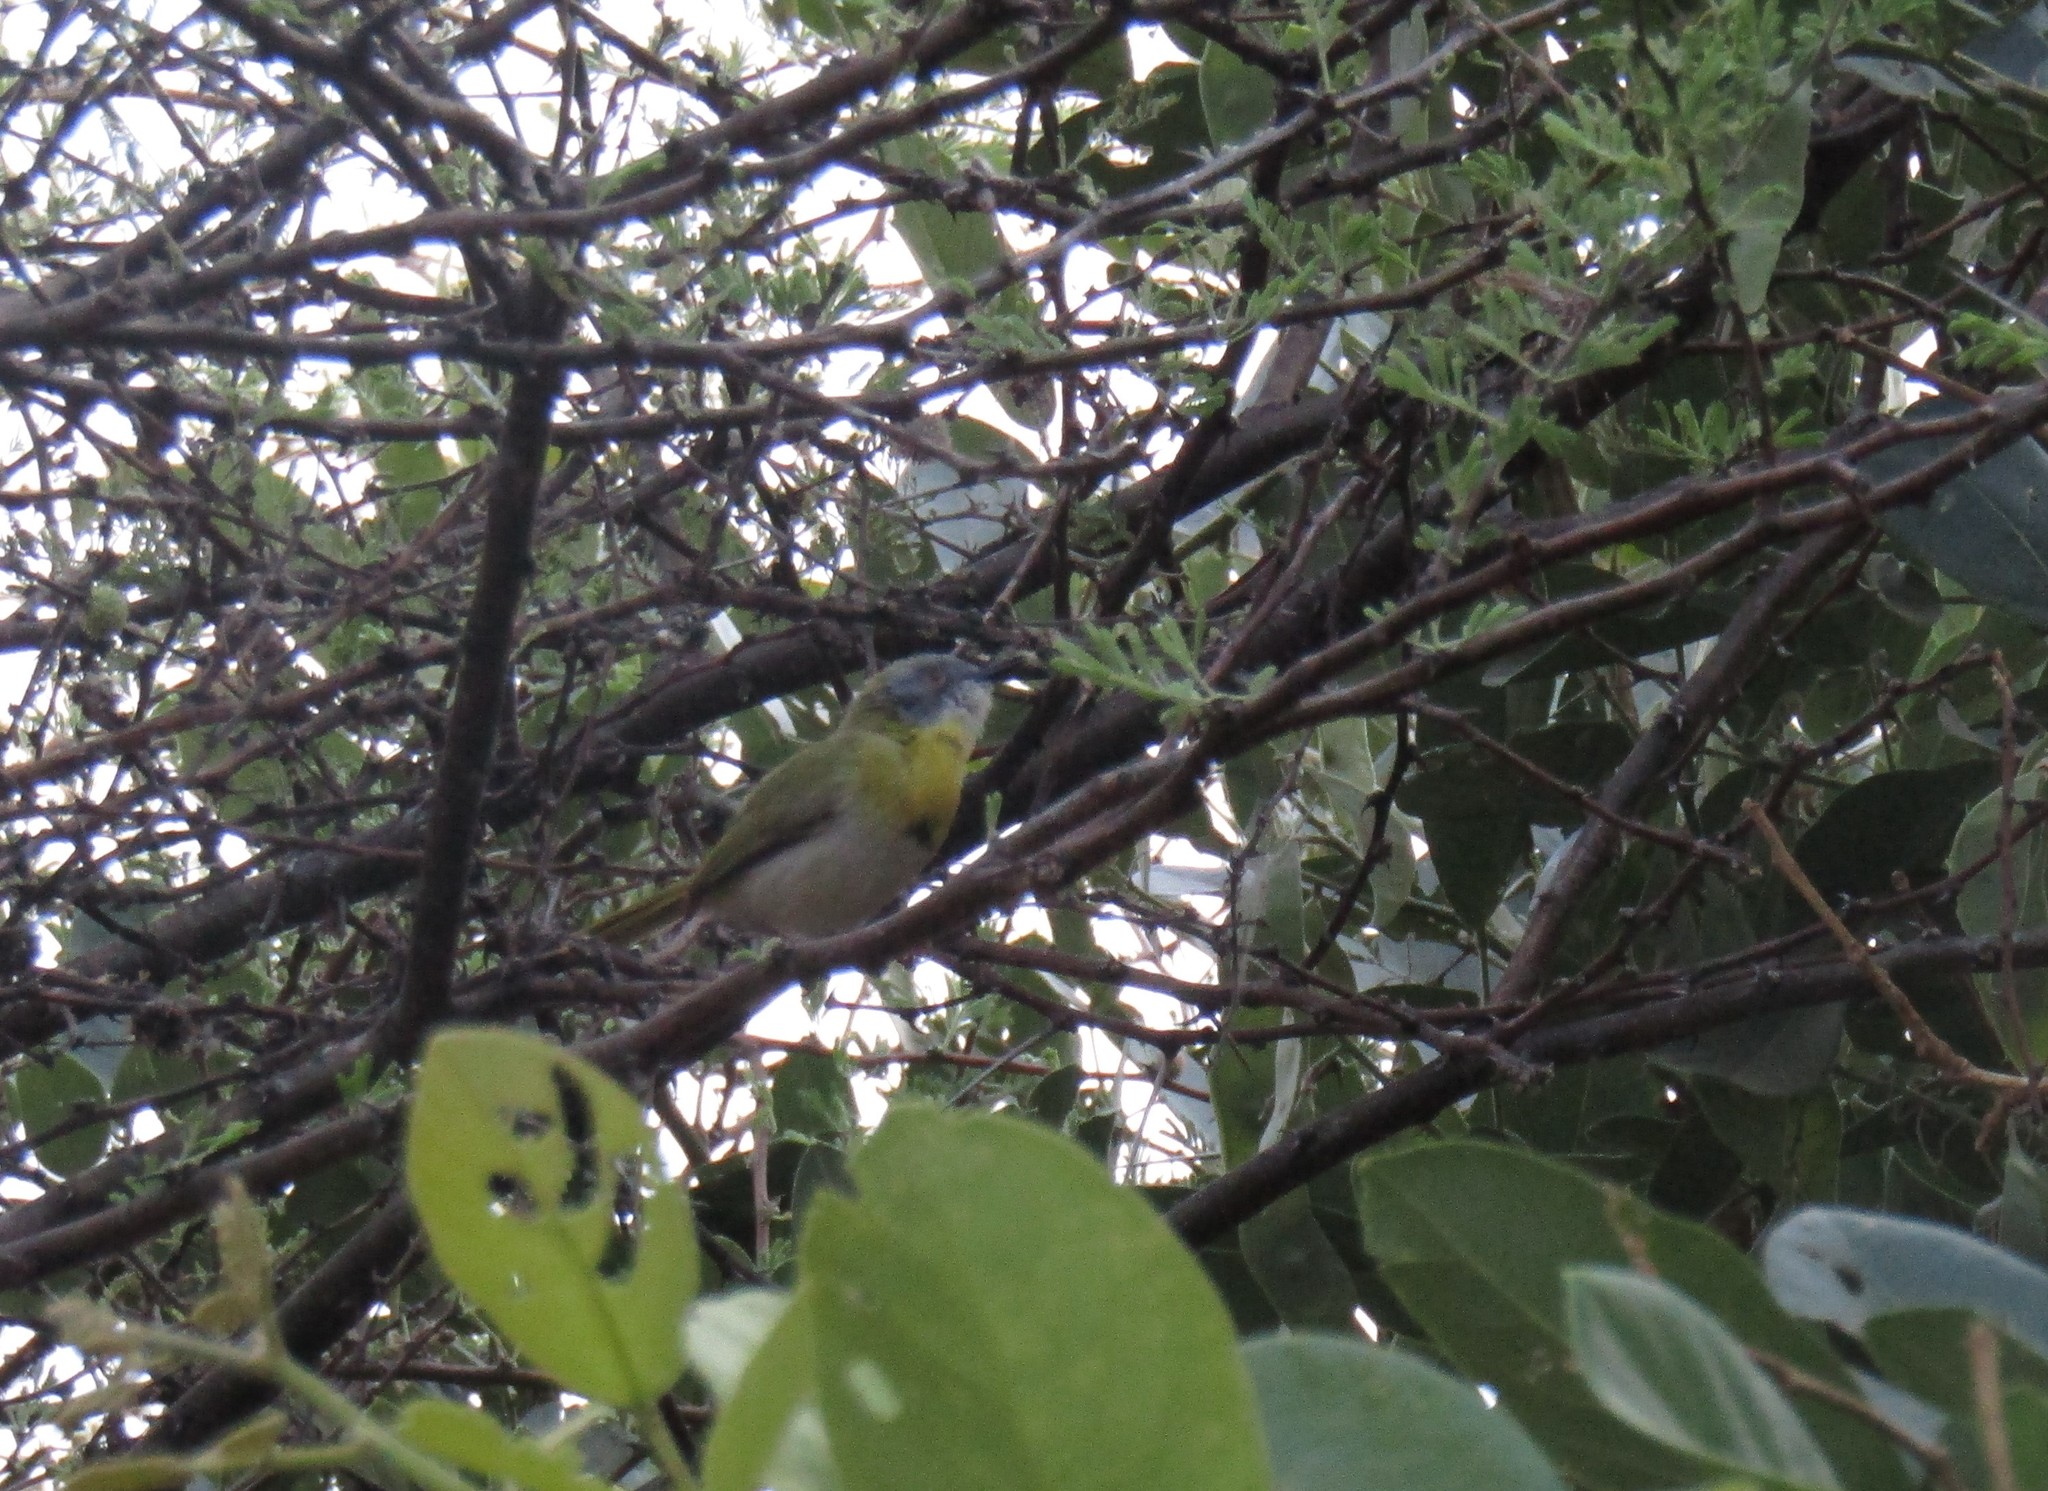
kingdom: Animalia
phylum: Chordata
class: Aves
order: Passeriformes
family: Cisticolidae
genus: Apalis
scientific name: Apalis flavida
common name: Yellow-breasted apalis
